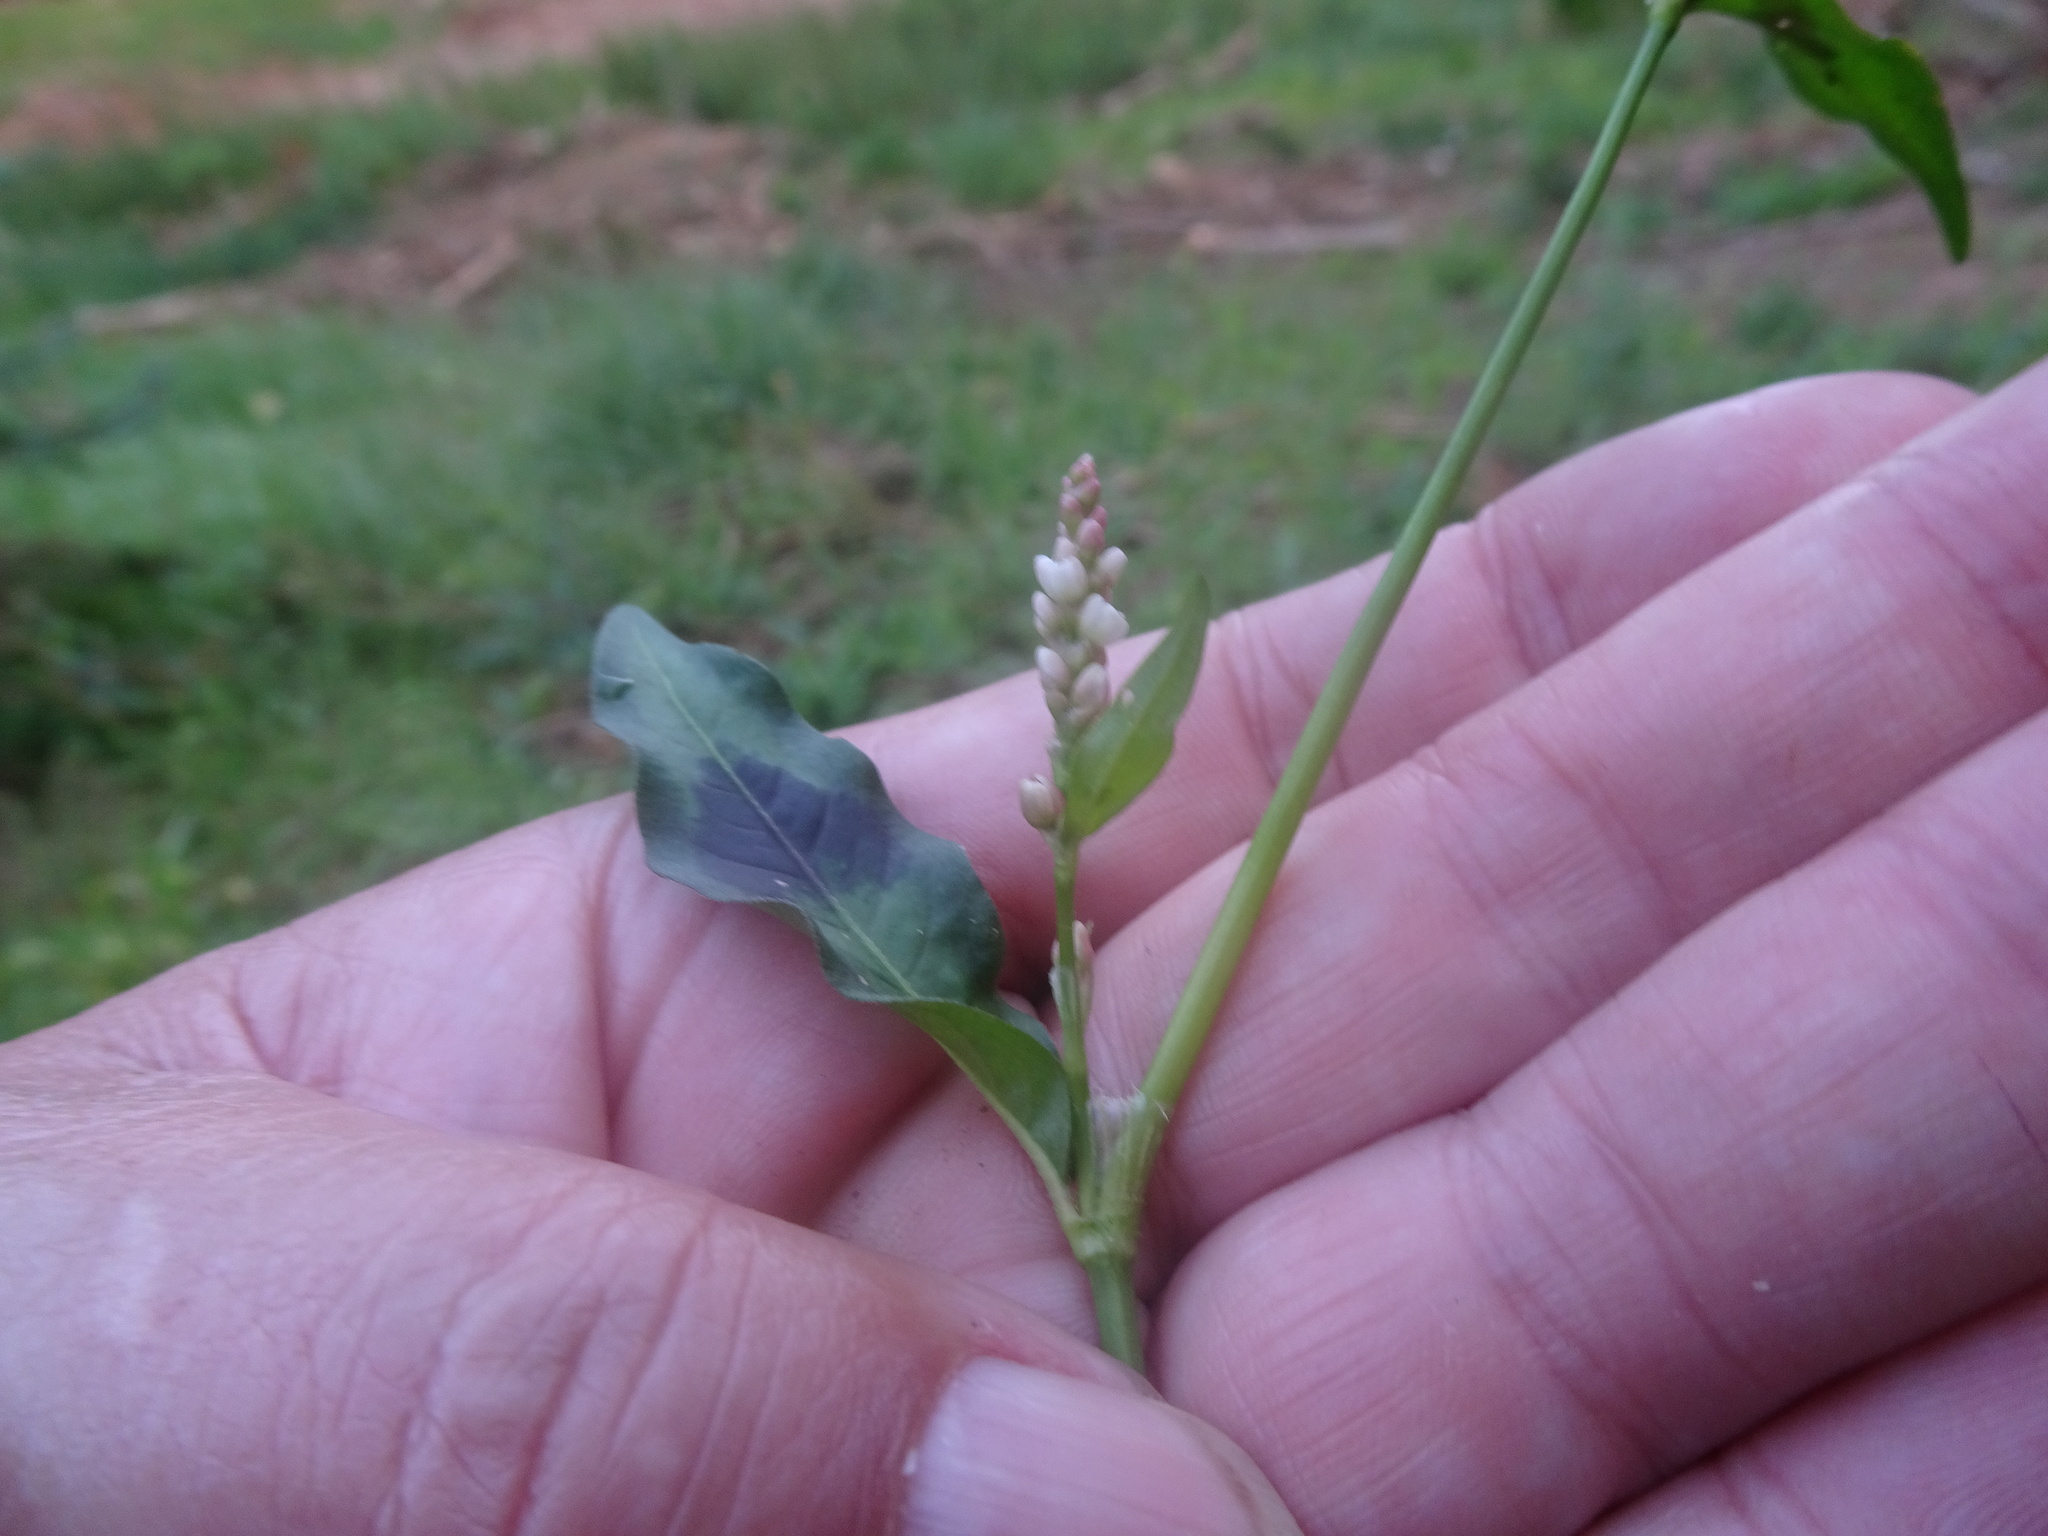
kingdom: Plantae
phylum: Tracheophyta
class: Magnoliopsida
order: Caryophyllales
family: Polygonaceae
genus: Persicaria
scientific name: Persicaria maculosa
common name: Redshank
